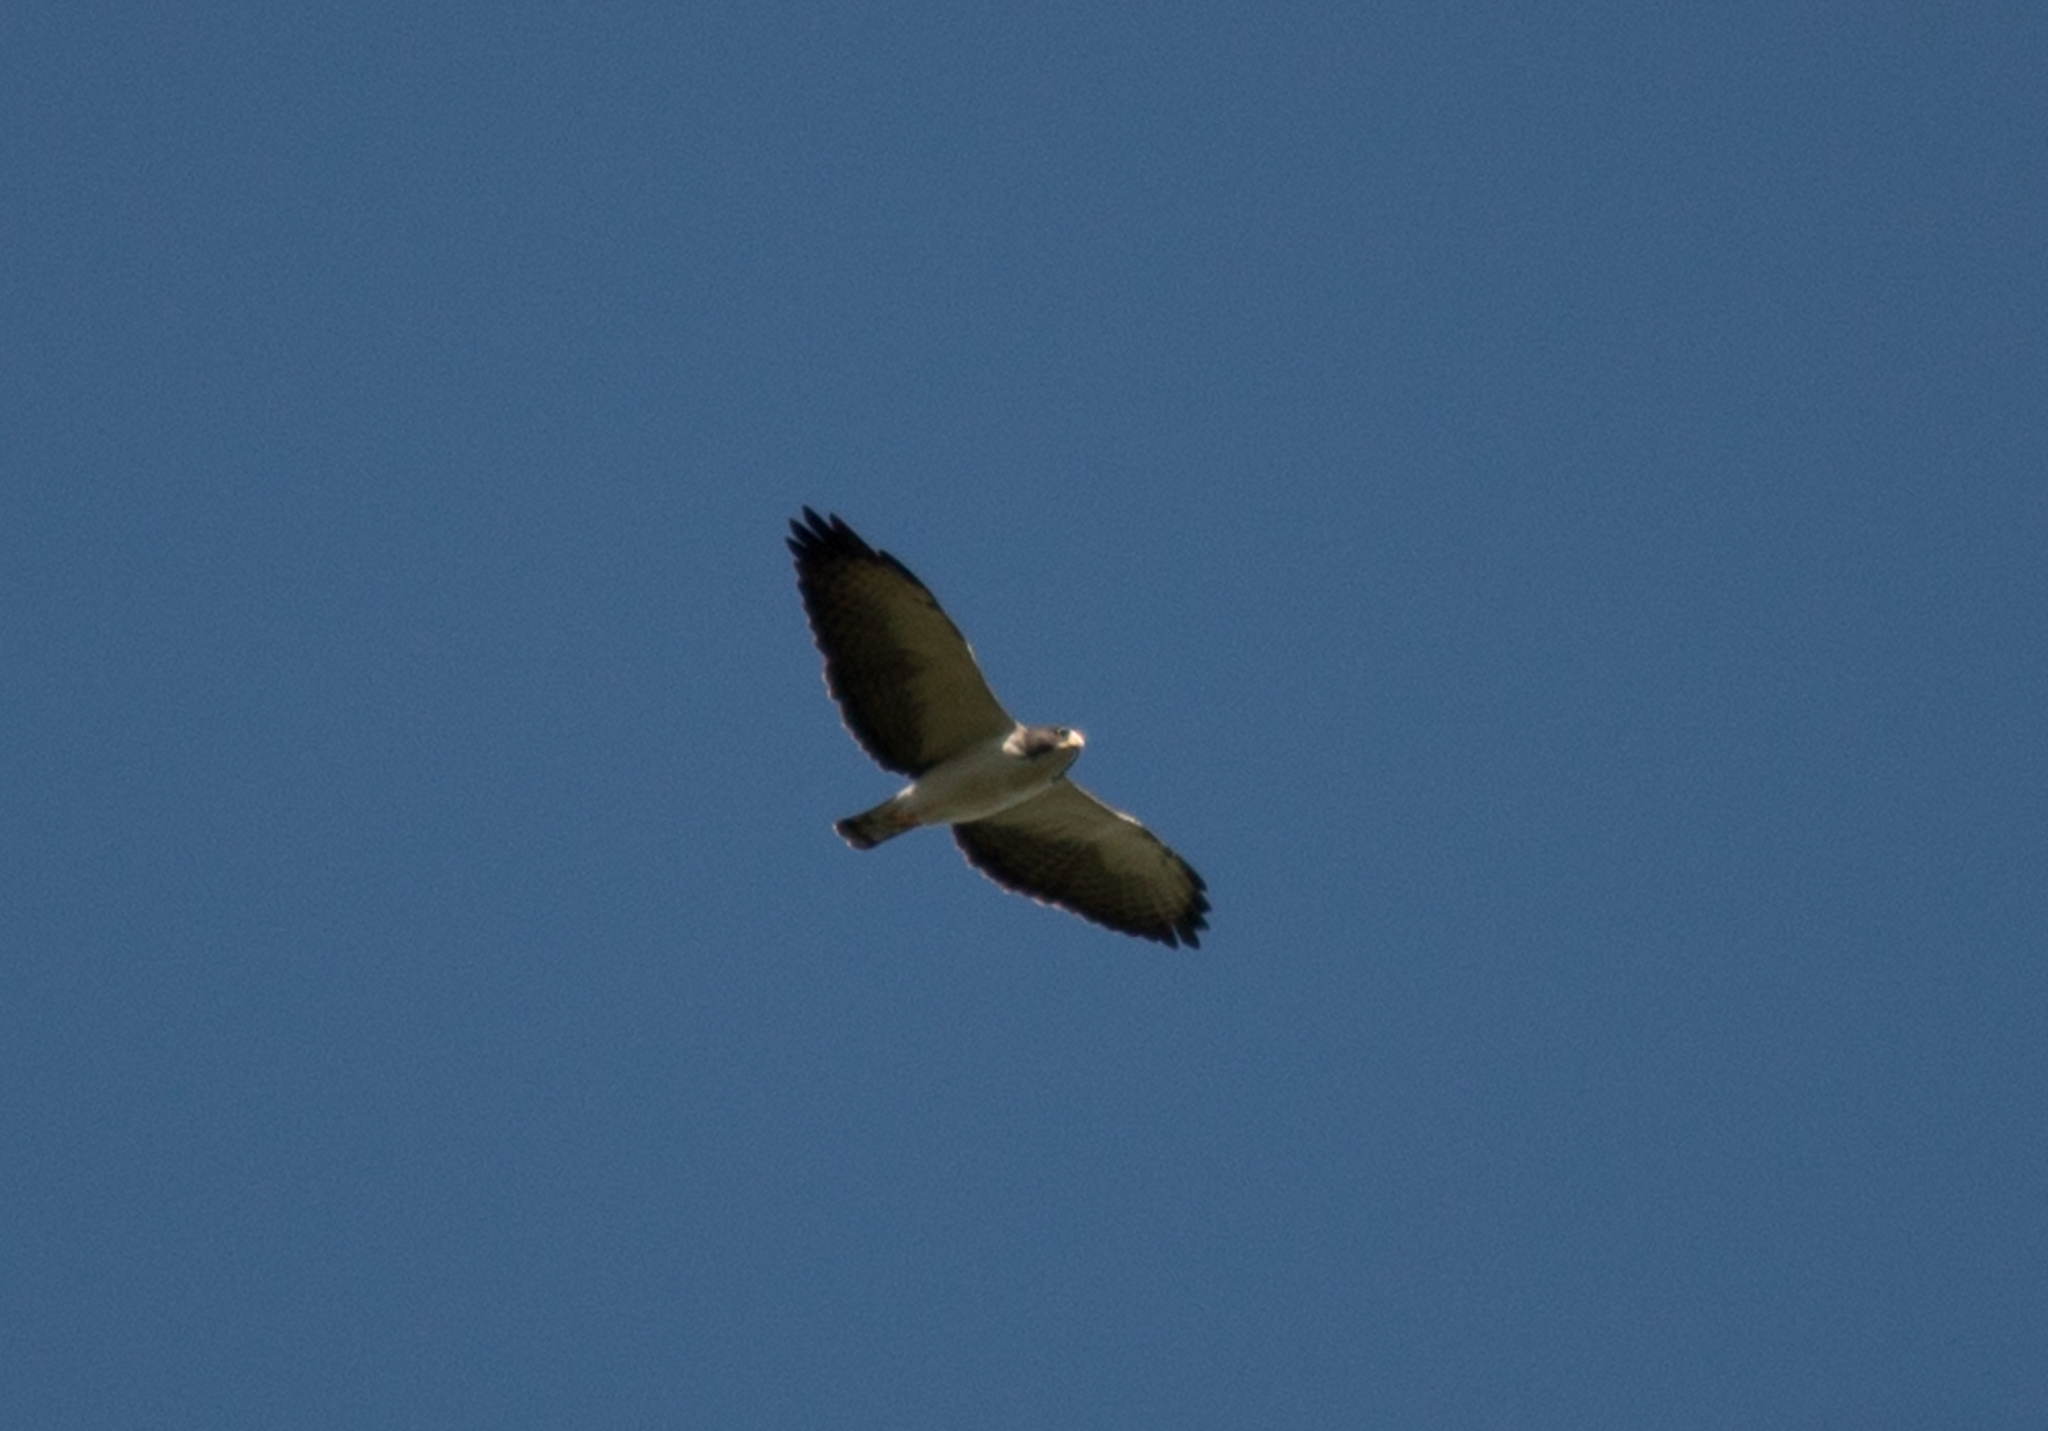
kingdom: Animalia
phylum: Chordata
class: Aves
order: Accipitriformes
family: Accipitridae
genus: Buteo
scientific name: Buteo brachyurus
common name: Short-tailed hawk
